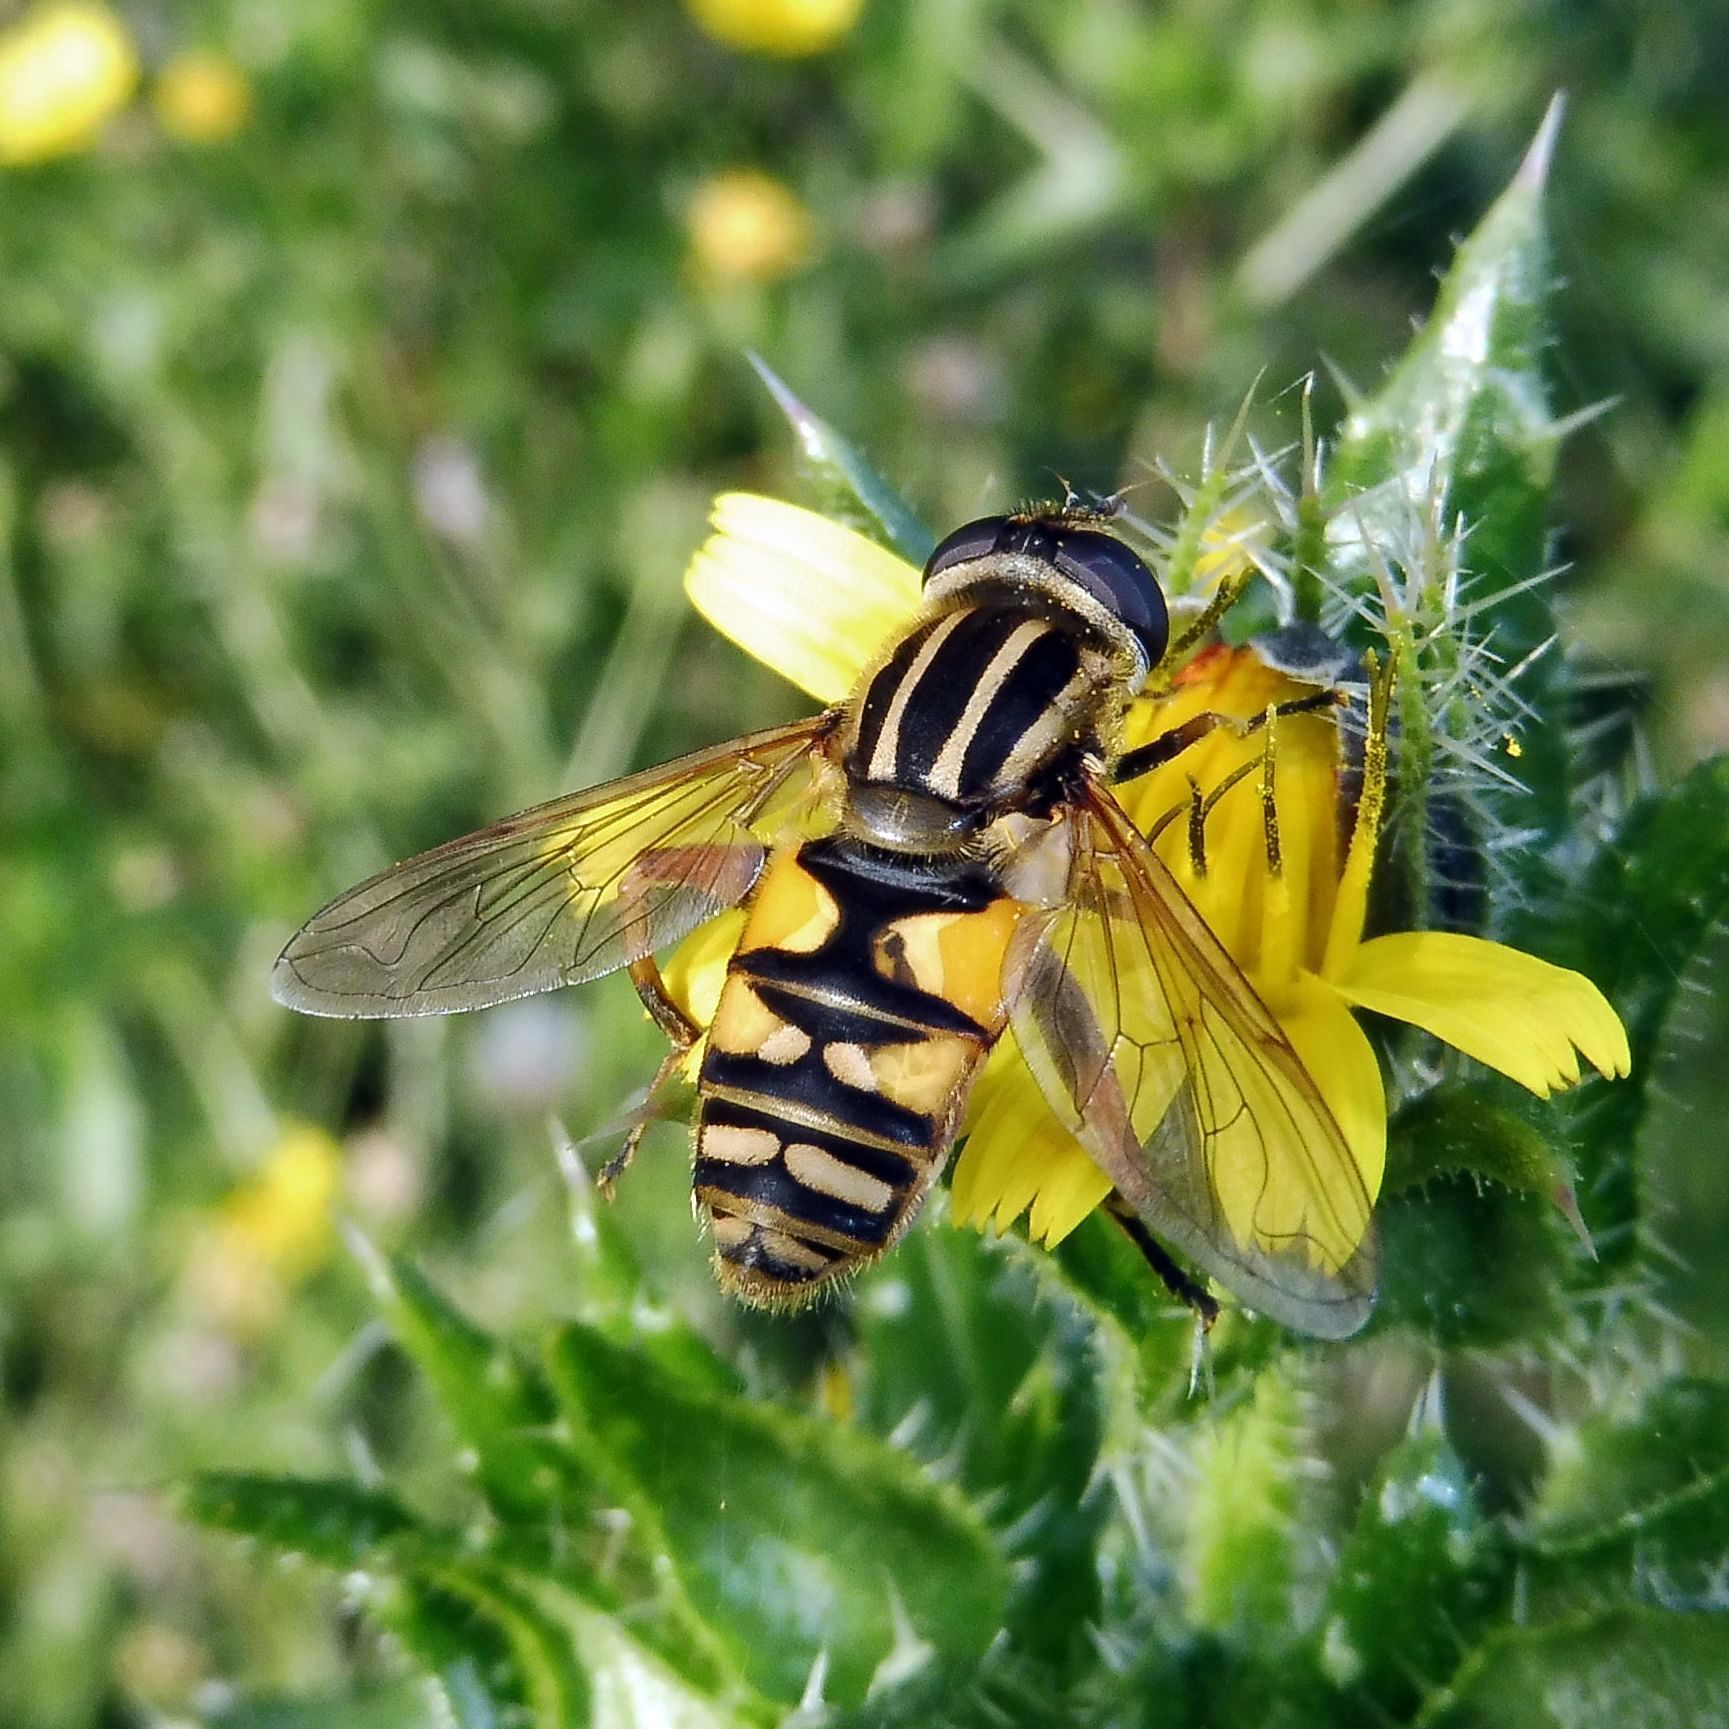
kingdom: Animalia
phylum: Arthropoda
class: Insecta
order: Diptera
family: Syrphidae
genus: Helophilus
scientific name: Helophilus pendulus
